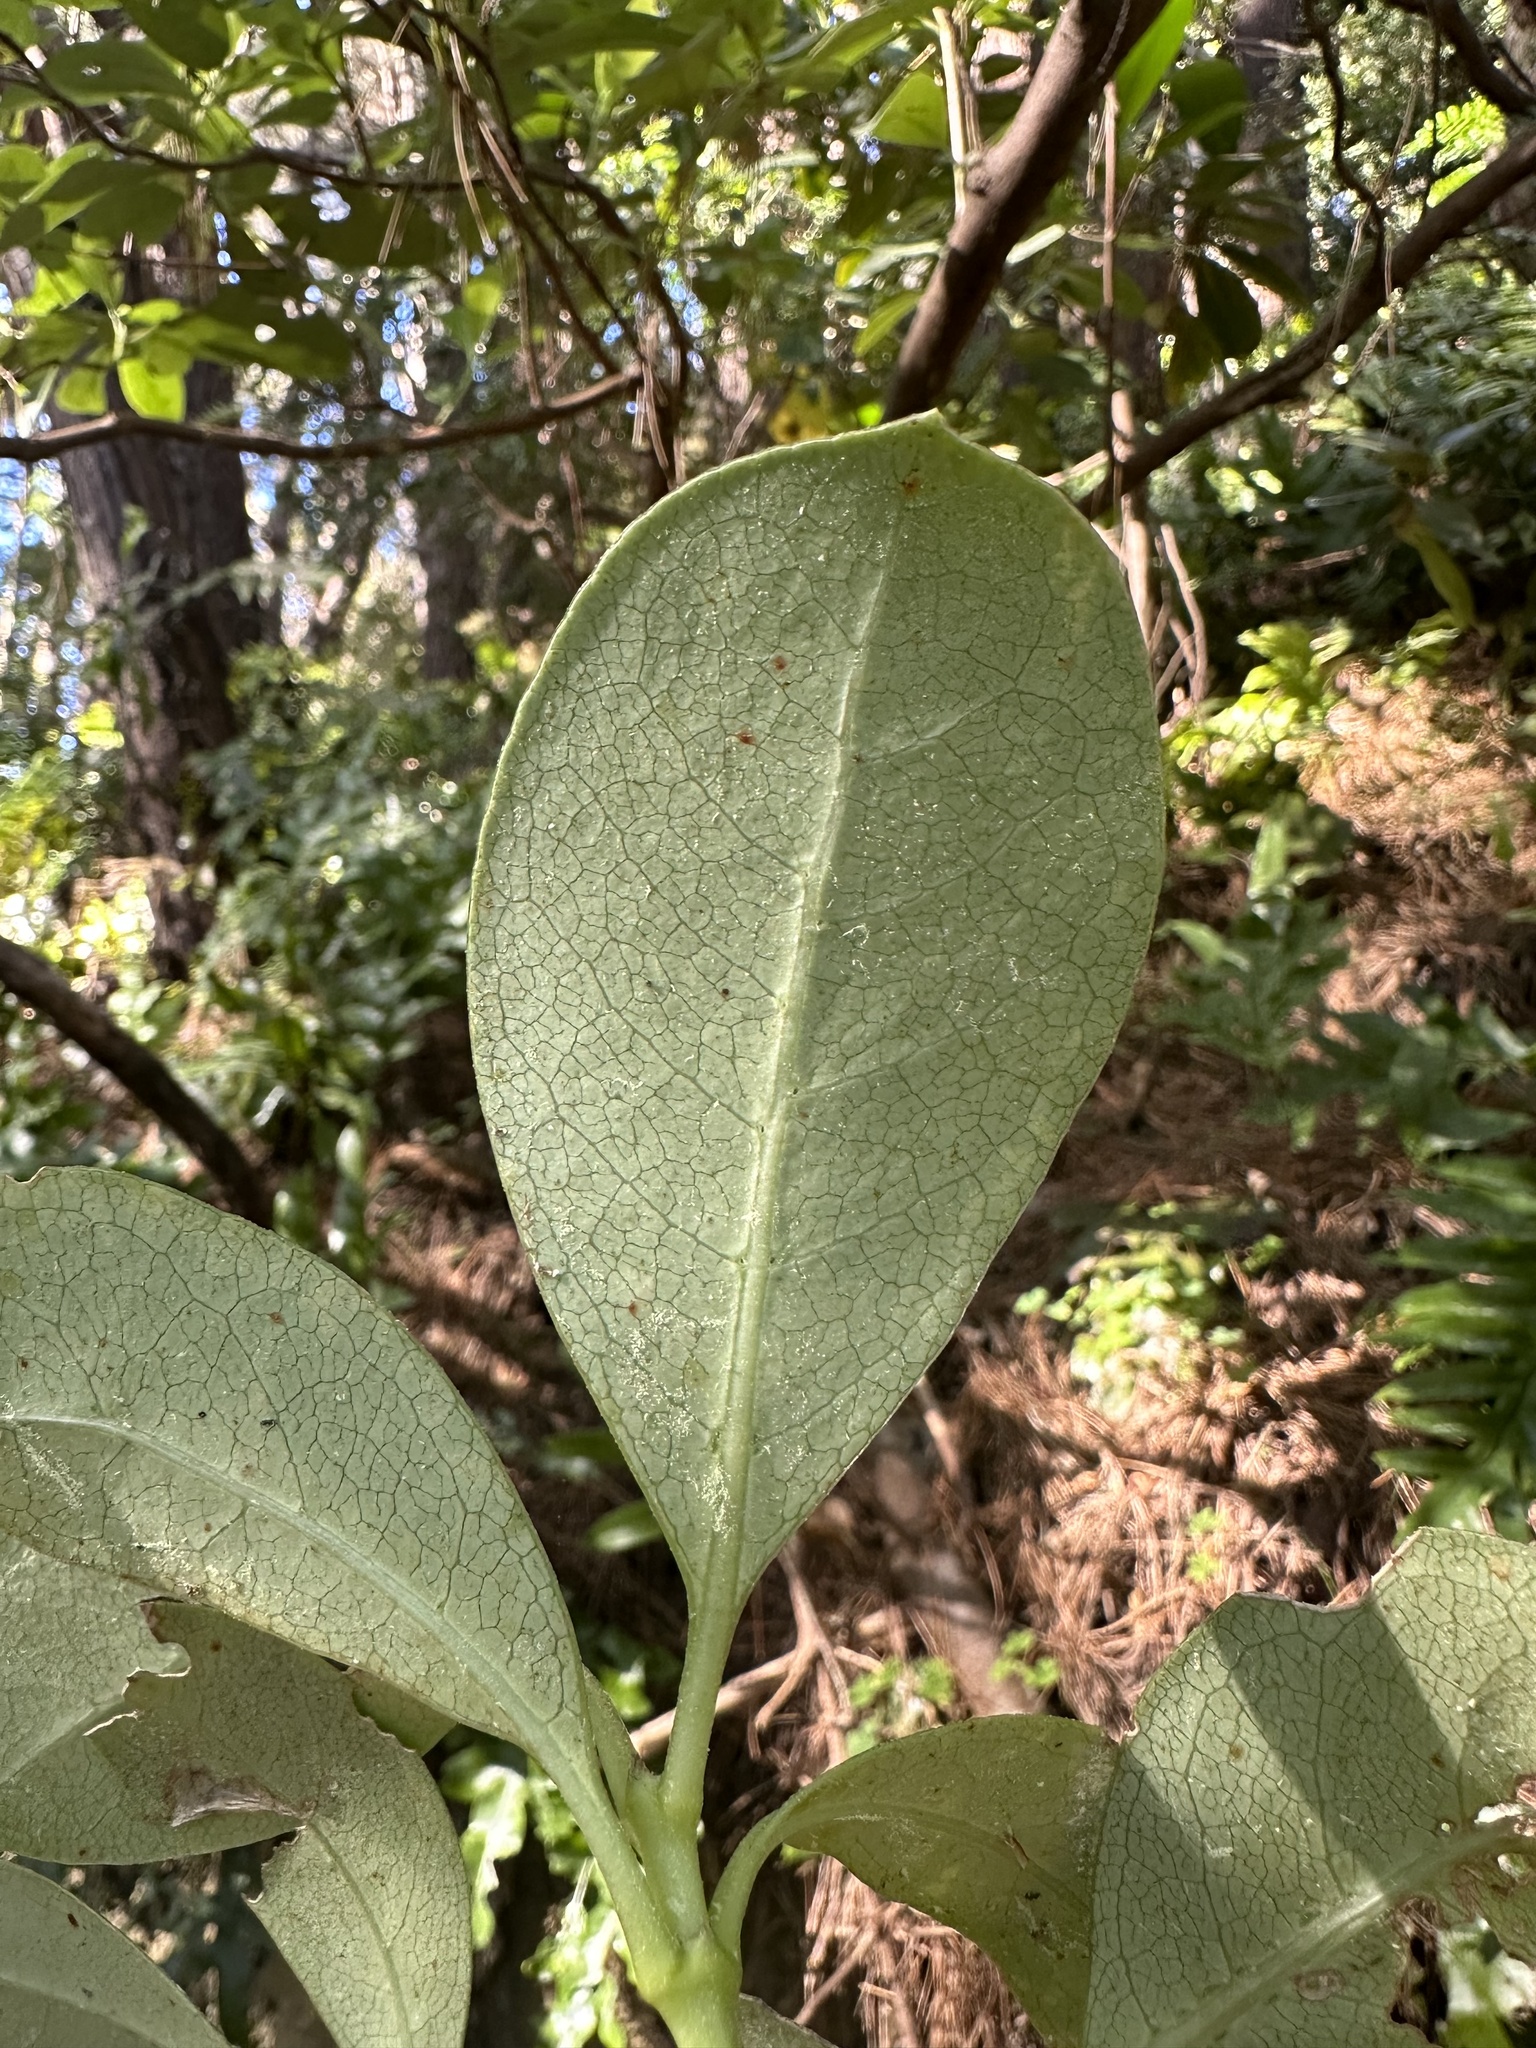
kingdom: Plantae
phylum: Tracheophyta
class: Magnoliopsida
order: Gentianales
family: Rubiaceae
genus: Coprosma
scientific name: Coprosma lucida
